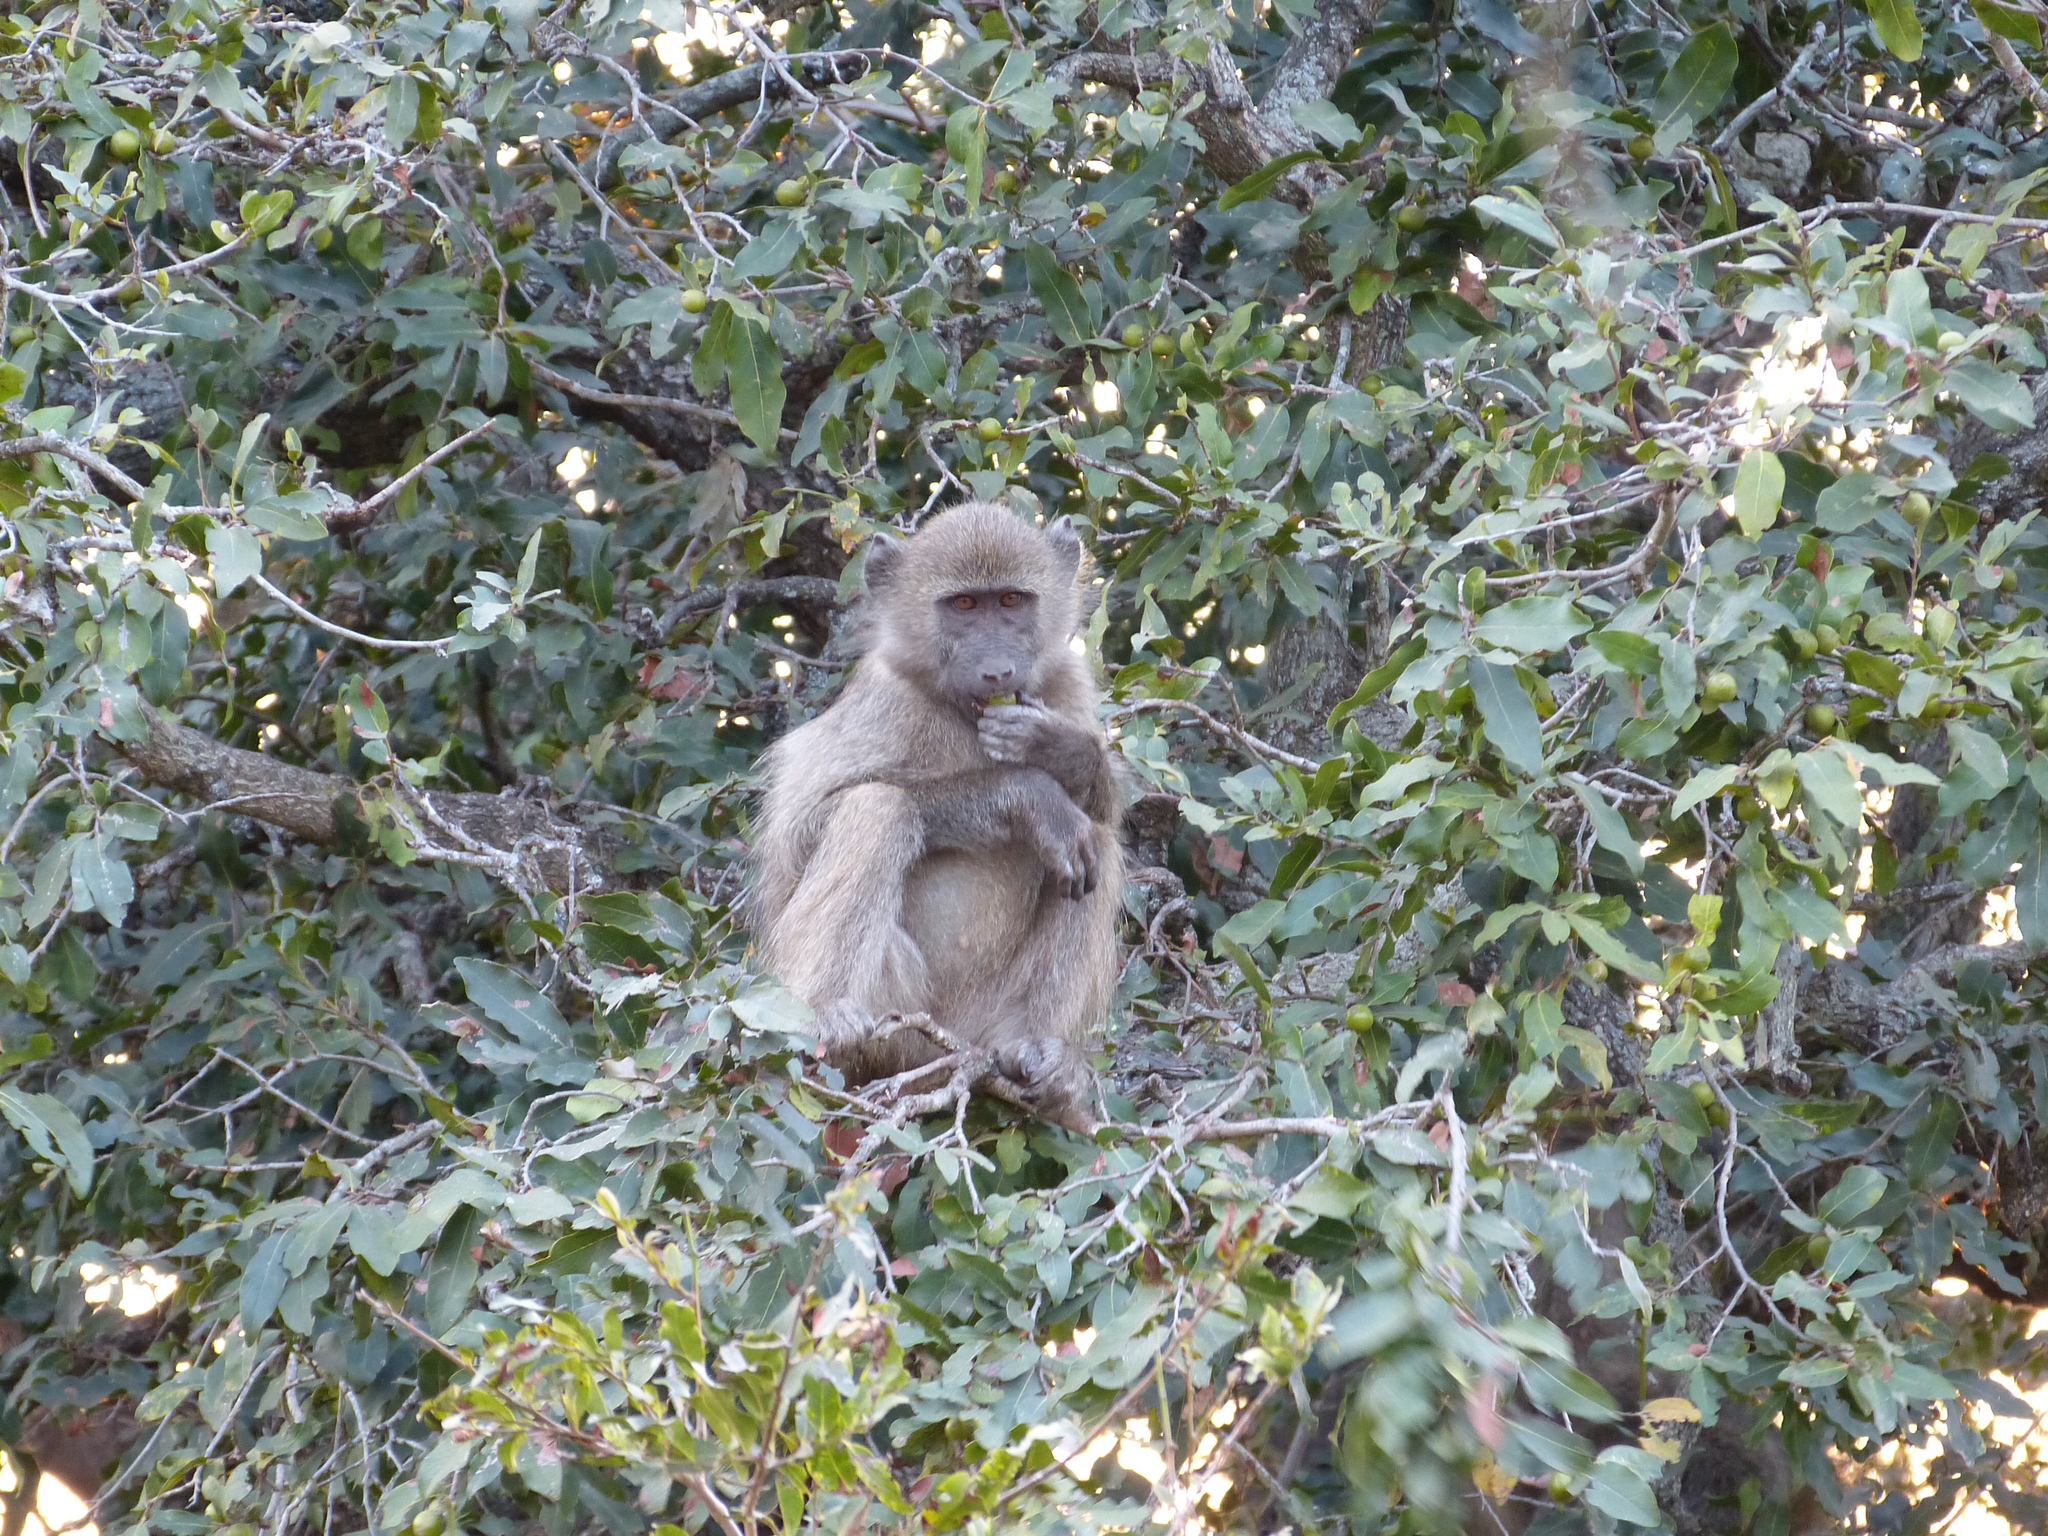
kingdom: Animalia
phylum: Chordata
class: Mammalia
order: Primates
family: Cercopithecidae
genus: Papio
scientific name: Papio ursinus
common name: Chacma baboon
